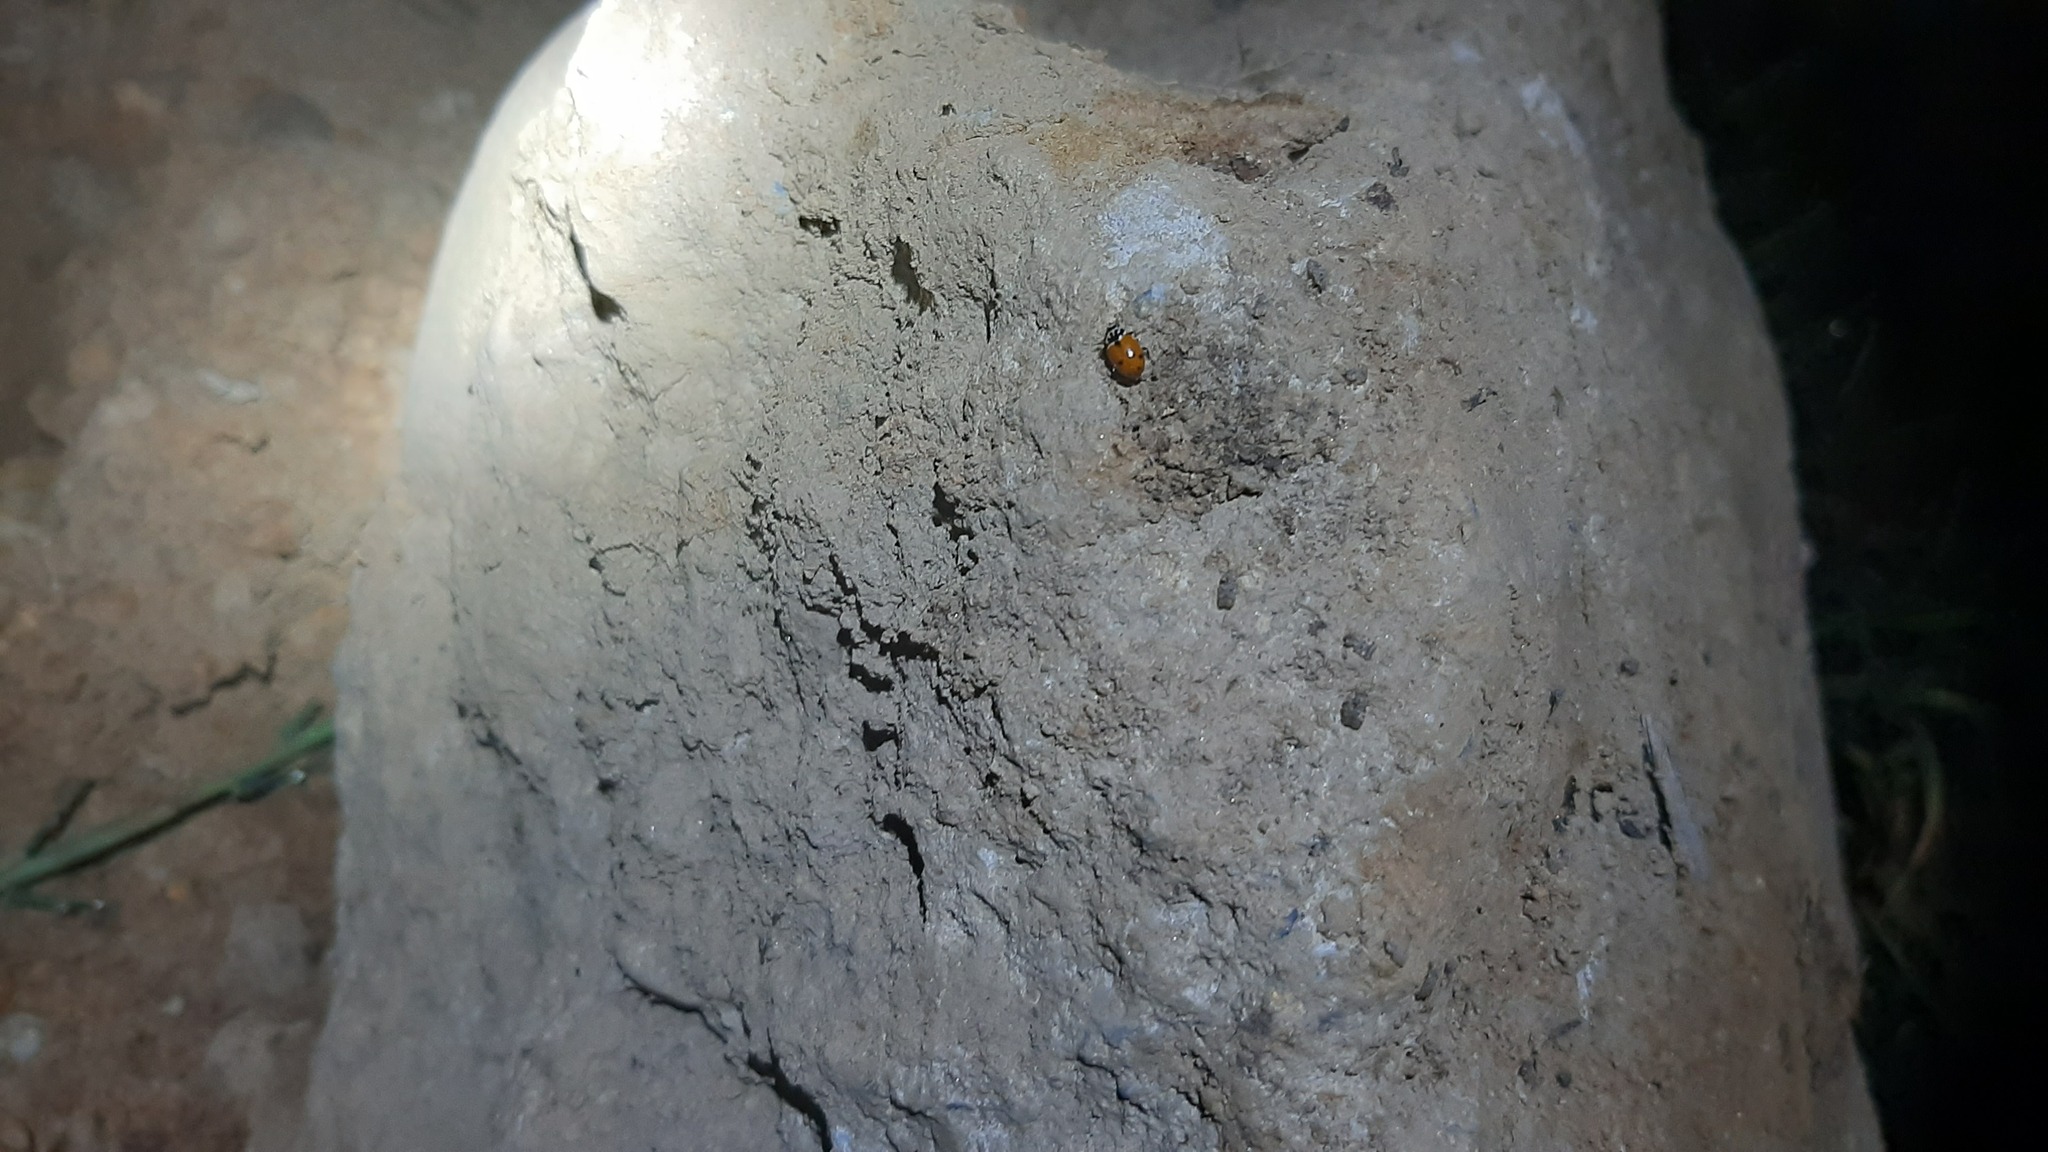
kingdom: Animalia
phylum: Arthropoda
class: Insecta
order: Coleoptera
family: Coccinellidae
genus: Hippodamia
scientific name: Hippodamia variegata
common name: Ladybird beetle
